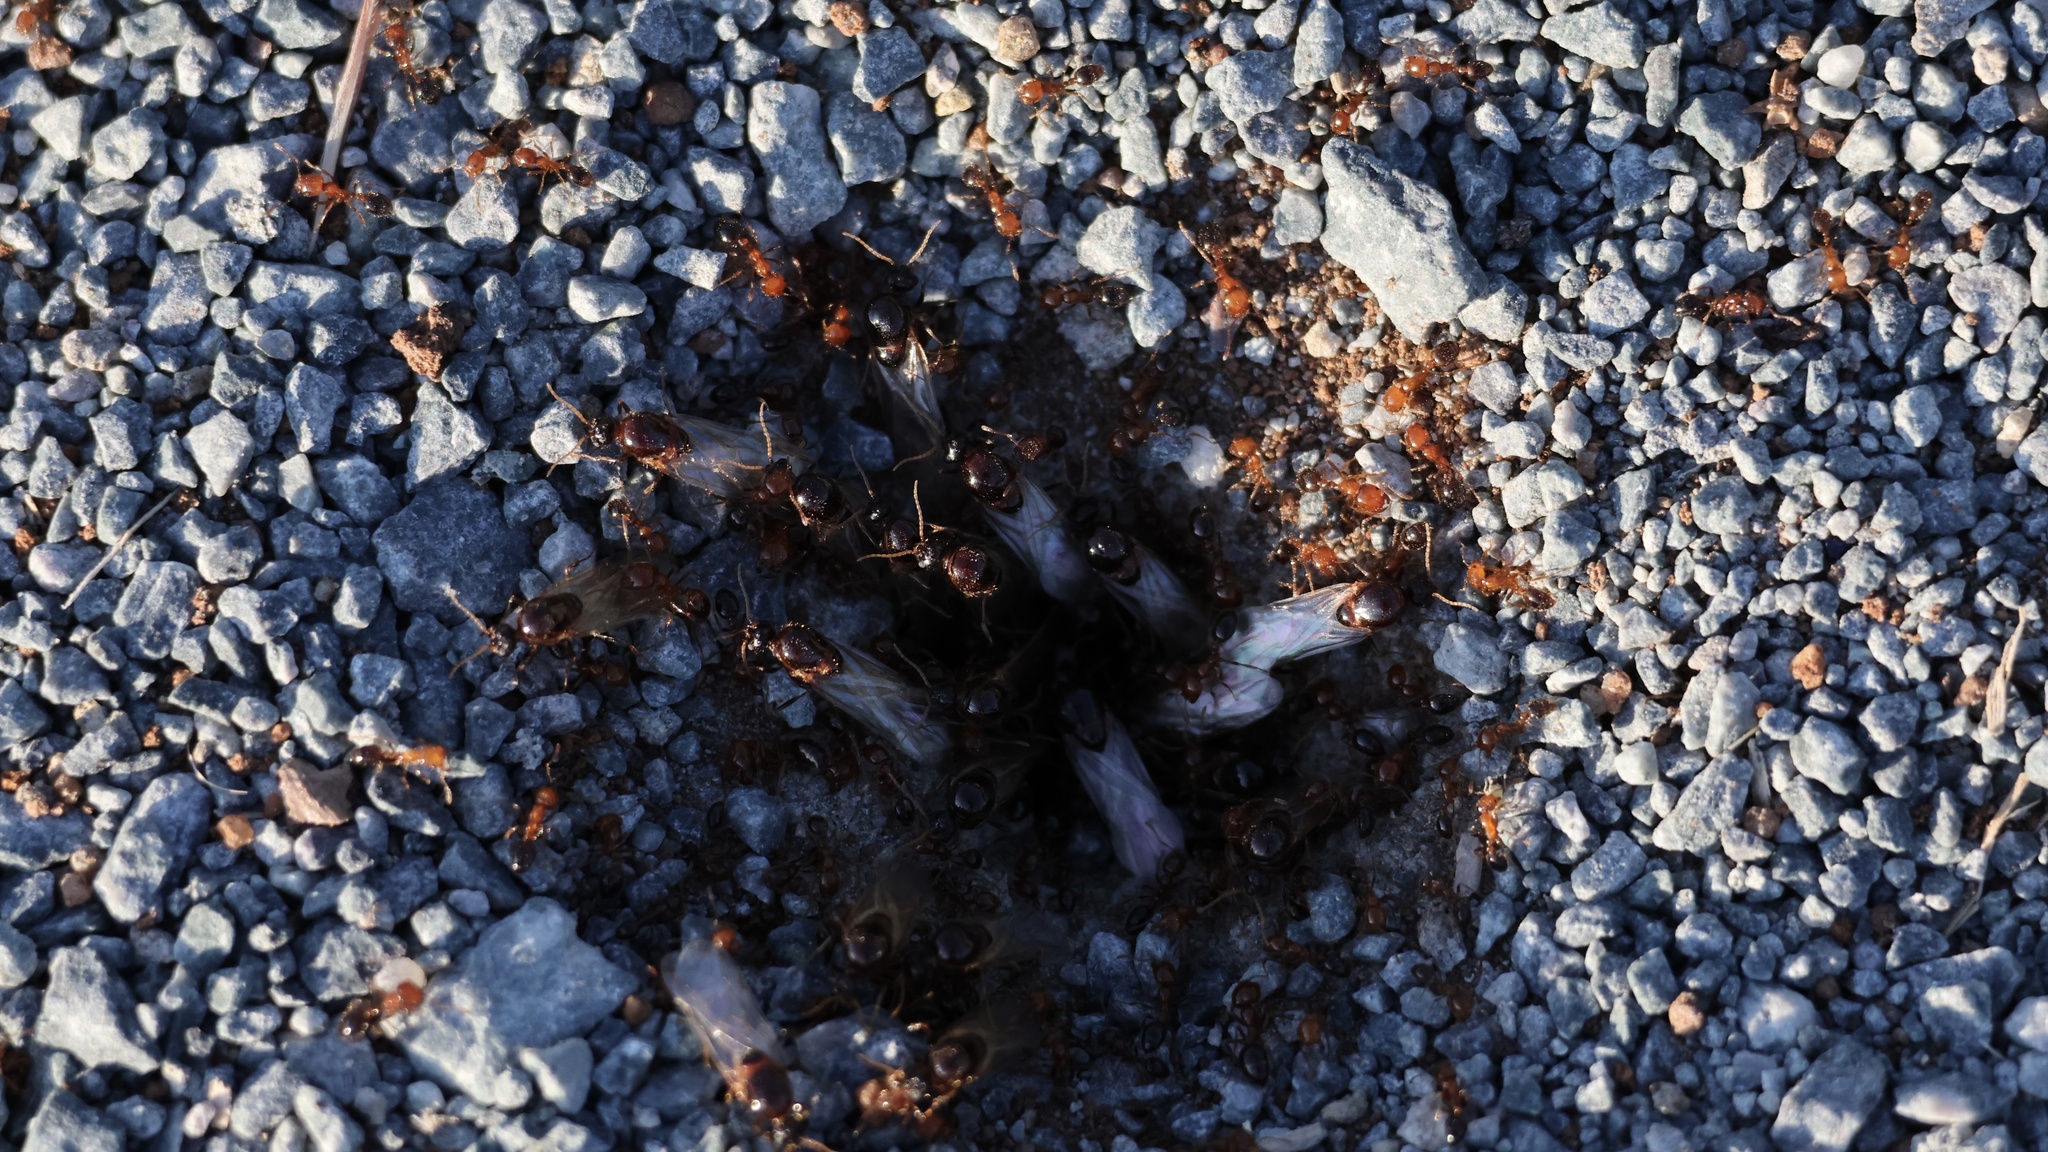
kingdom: Animalia
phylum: Arthropoda
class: Insecta
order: Hymenoptera
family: Formicidae
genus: Solenopsis
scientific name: Solenopsis xyloni
